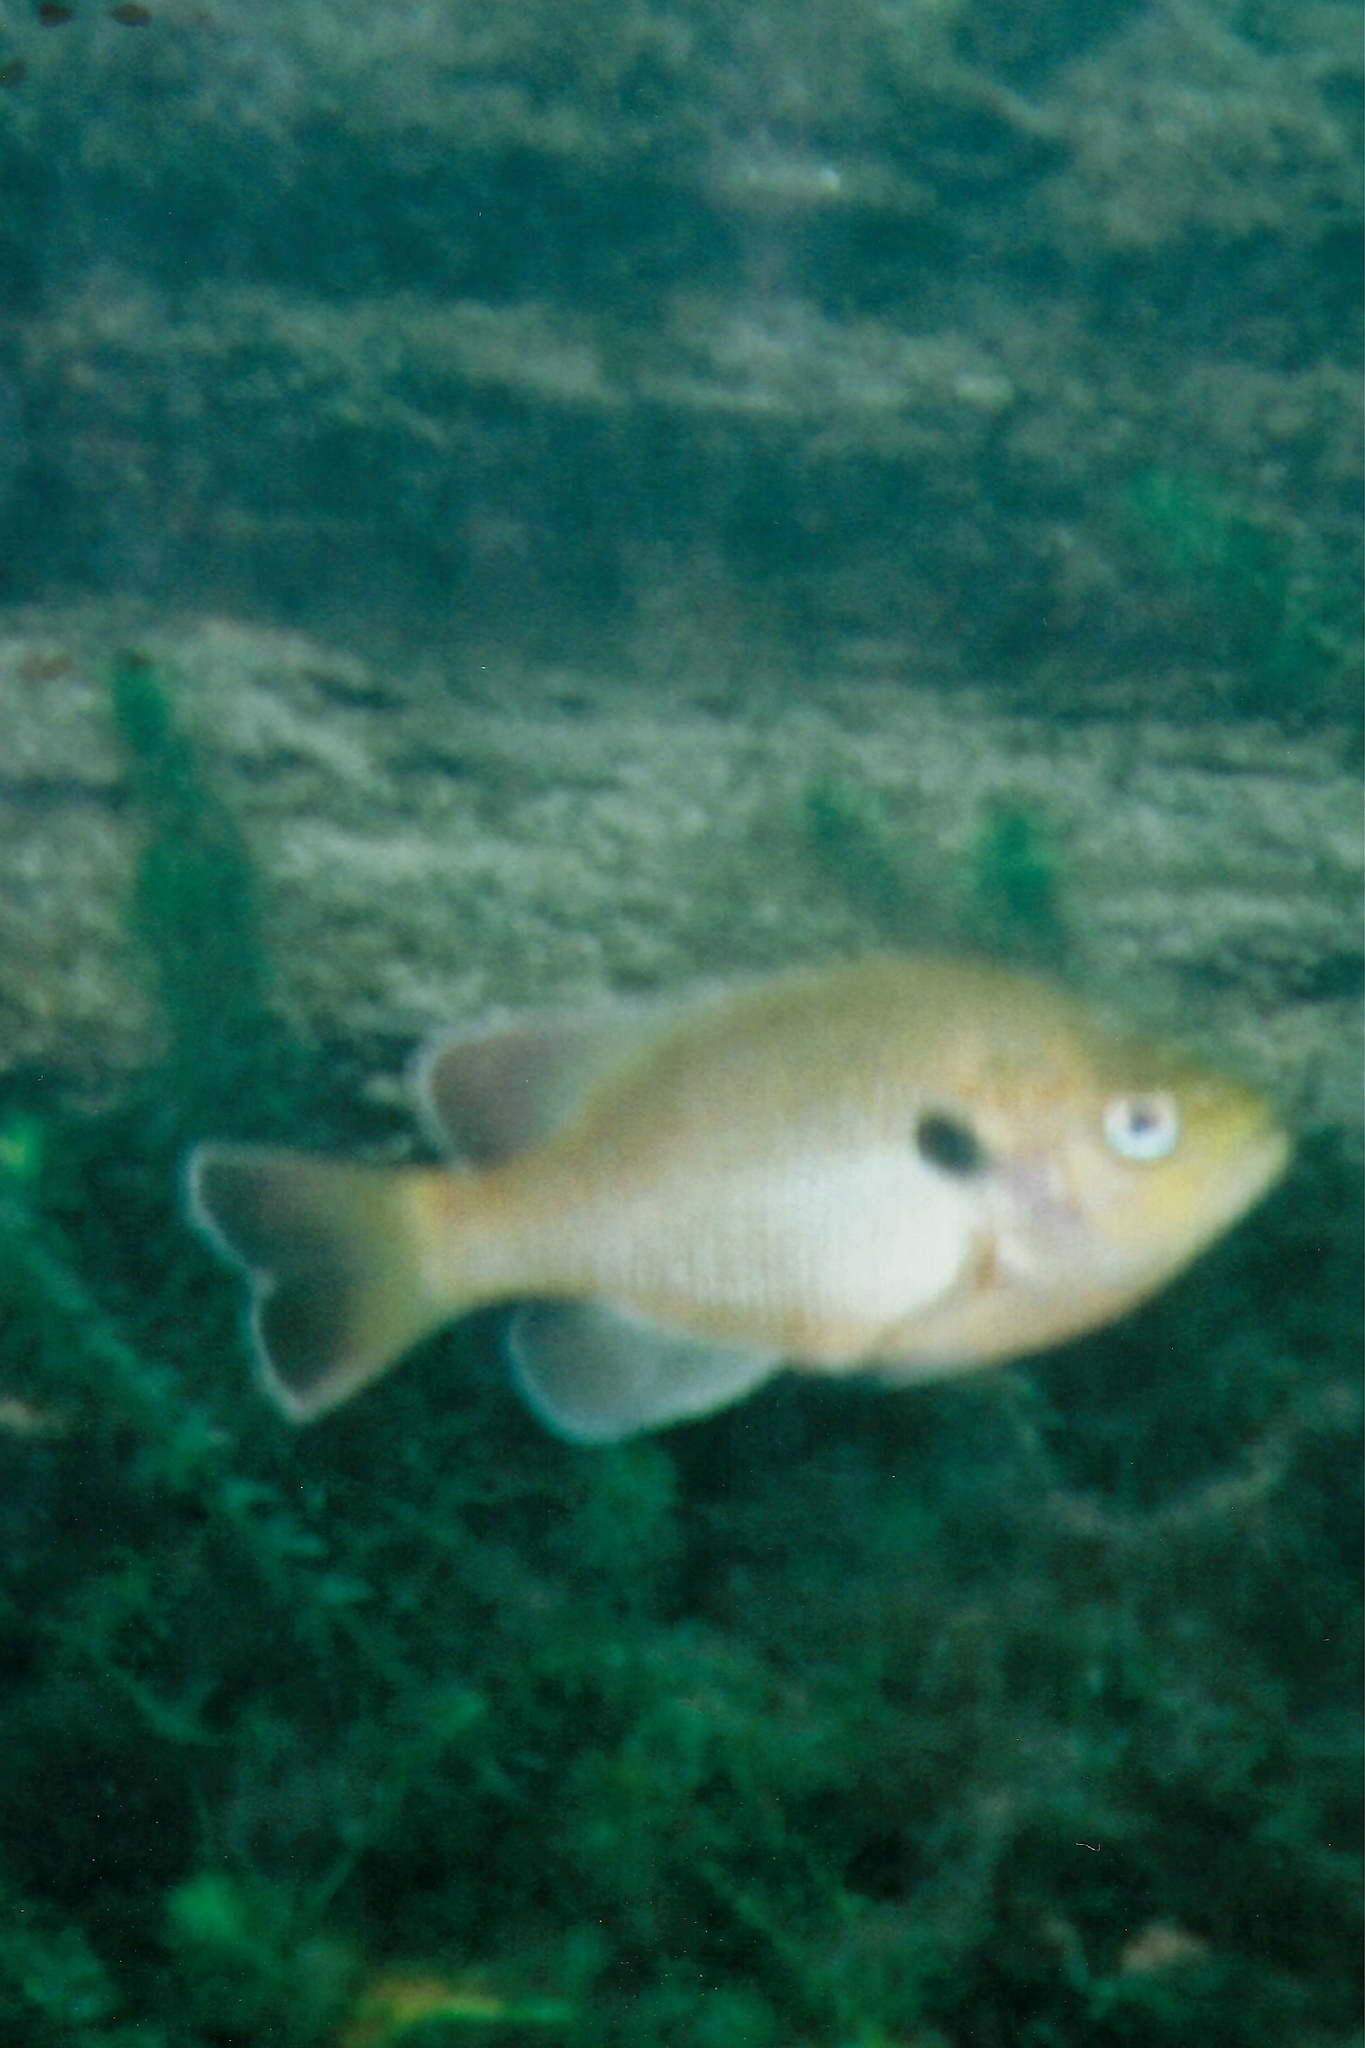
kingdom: Animalia
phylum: Chordata
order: Perciformes
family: Centrarchidae
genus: Lepomis
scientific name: Lepomis punctatus
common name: Spotted sunfish
